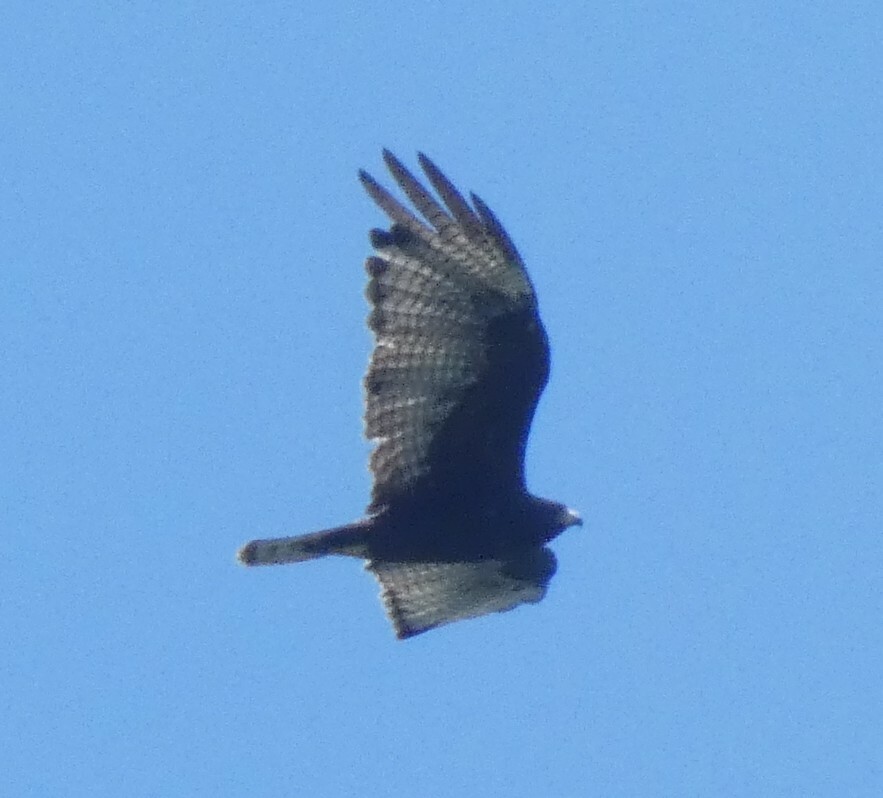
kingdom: Animalia
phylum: Chordata
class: Aves
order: Accipitriformes
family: Accipitridae
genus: Buteo
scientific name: Buteo albonotatus
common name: Zone-tailed hawk
